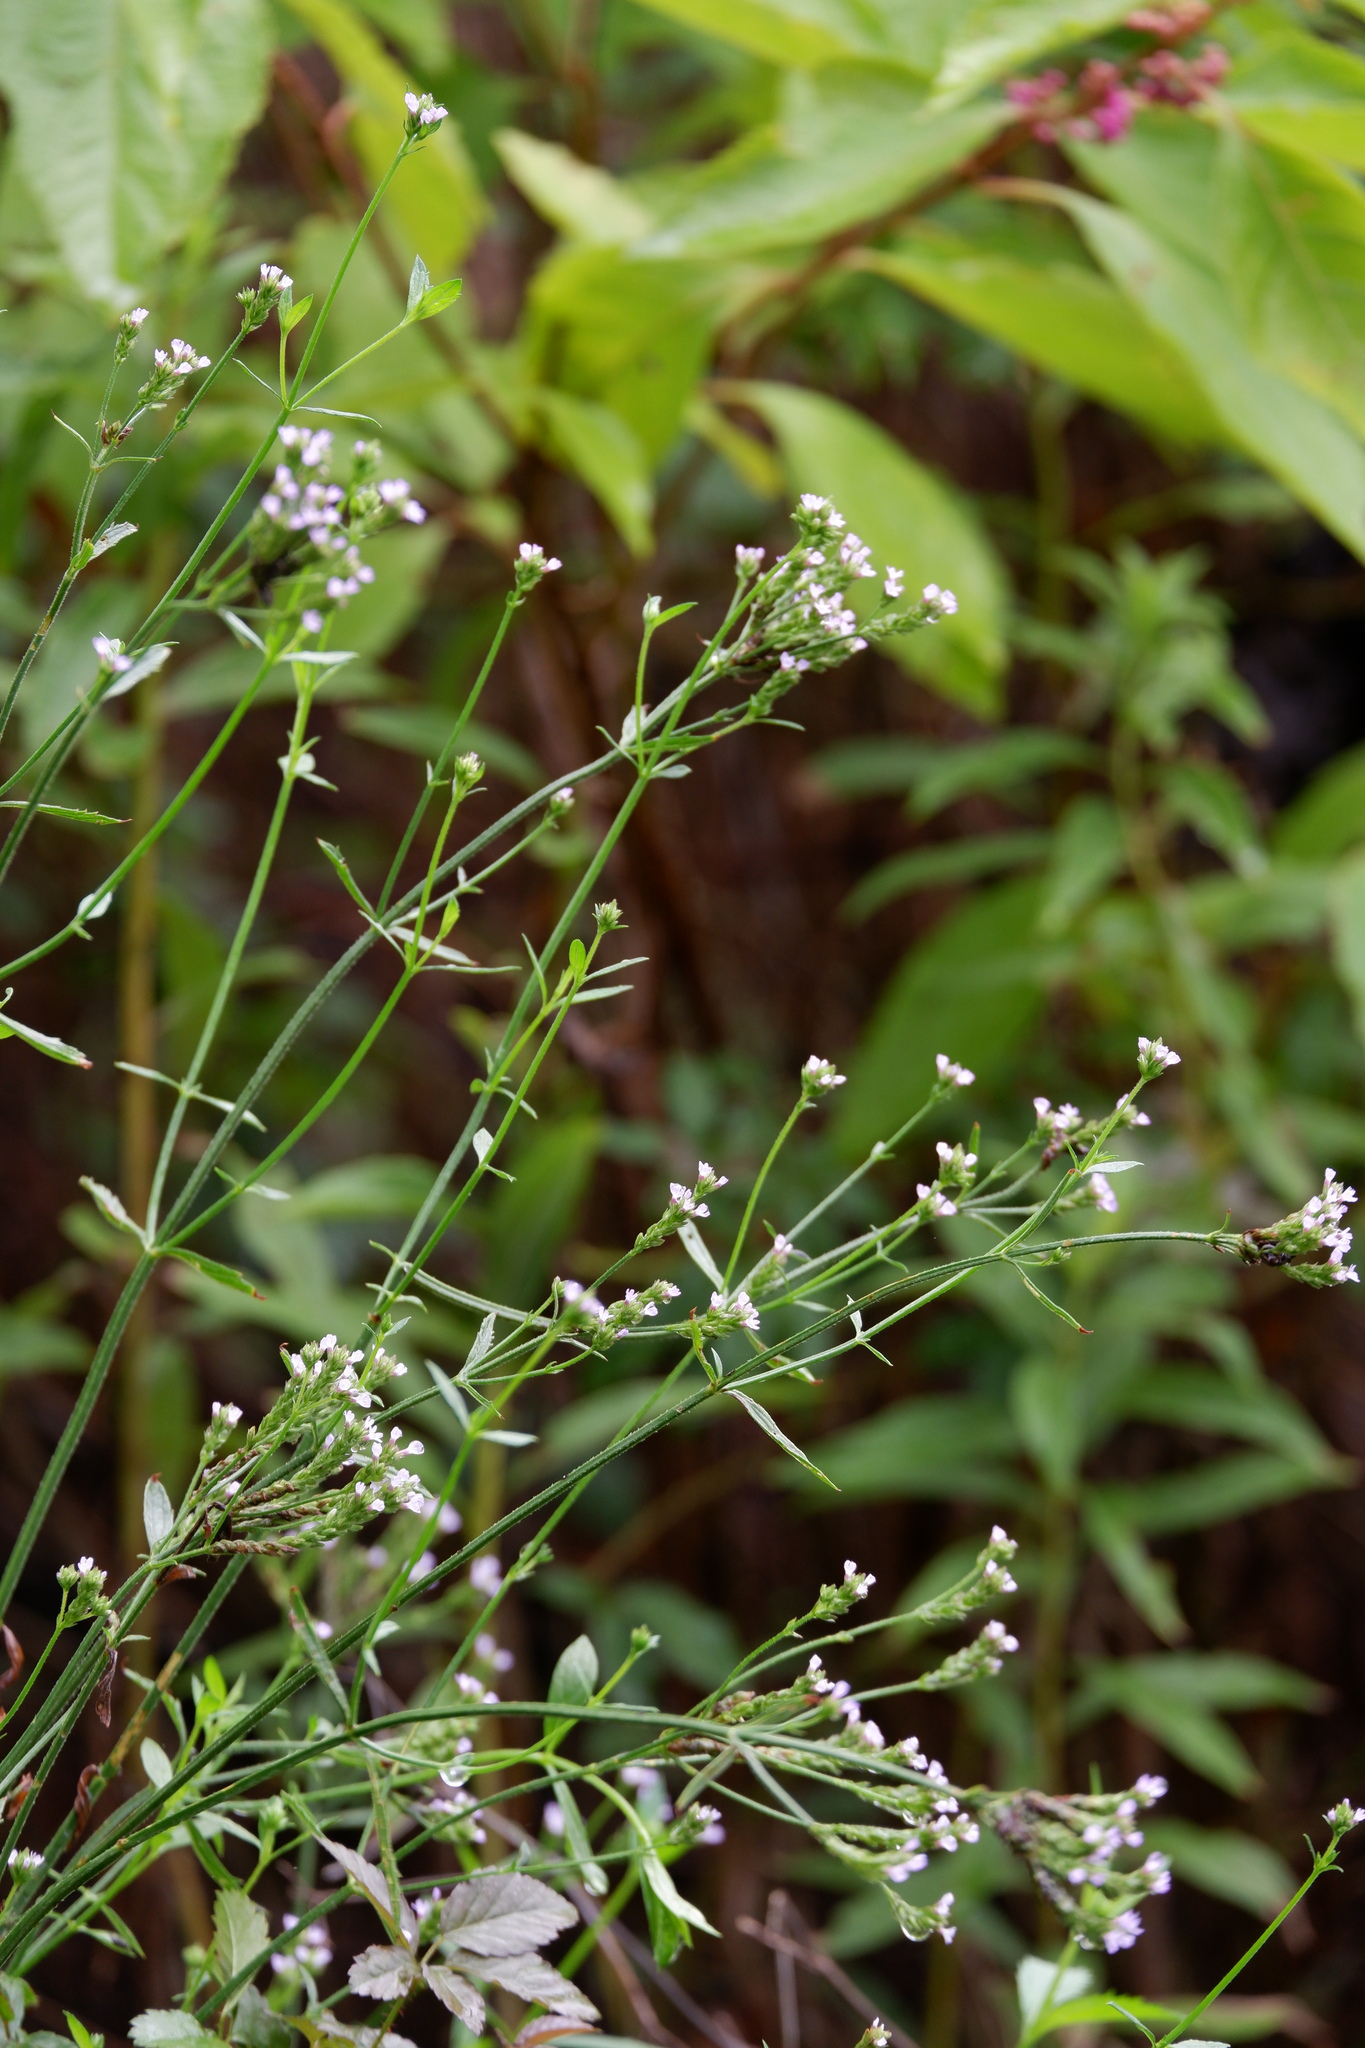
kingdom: Plantae
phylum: Tracheophyta
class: Magnoliopsida
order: Lamiales
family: Verbenaceae
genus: Verbena
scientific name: Verbena brasiliensis
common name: Brazilian vervain
